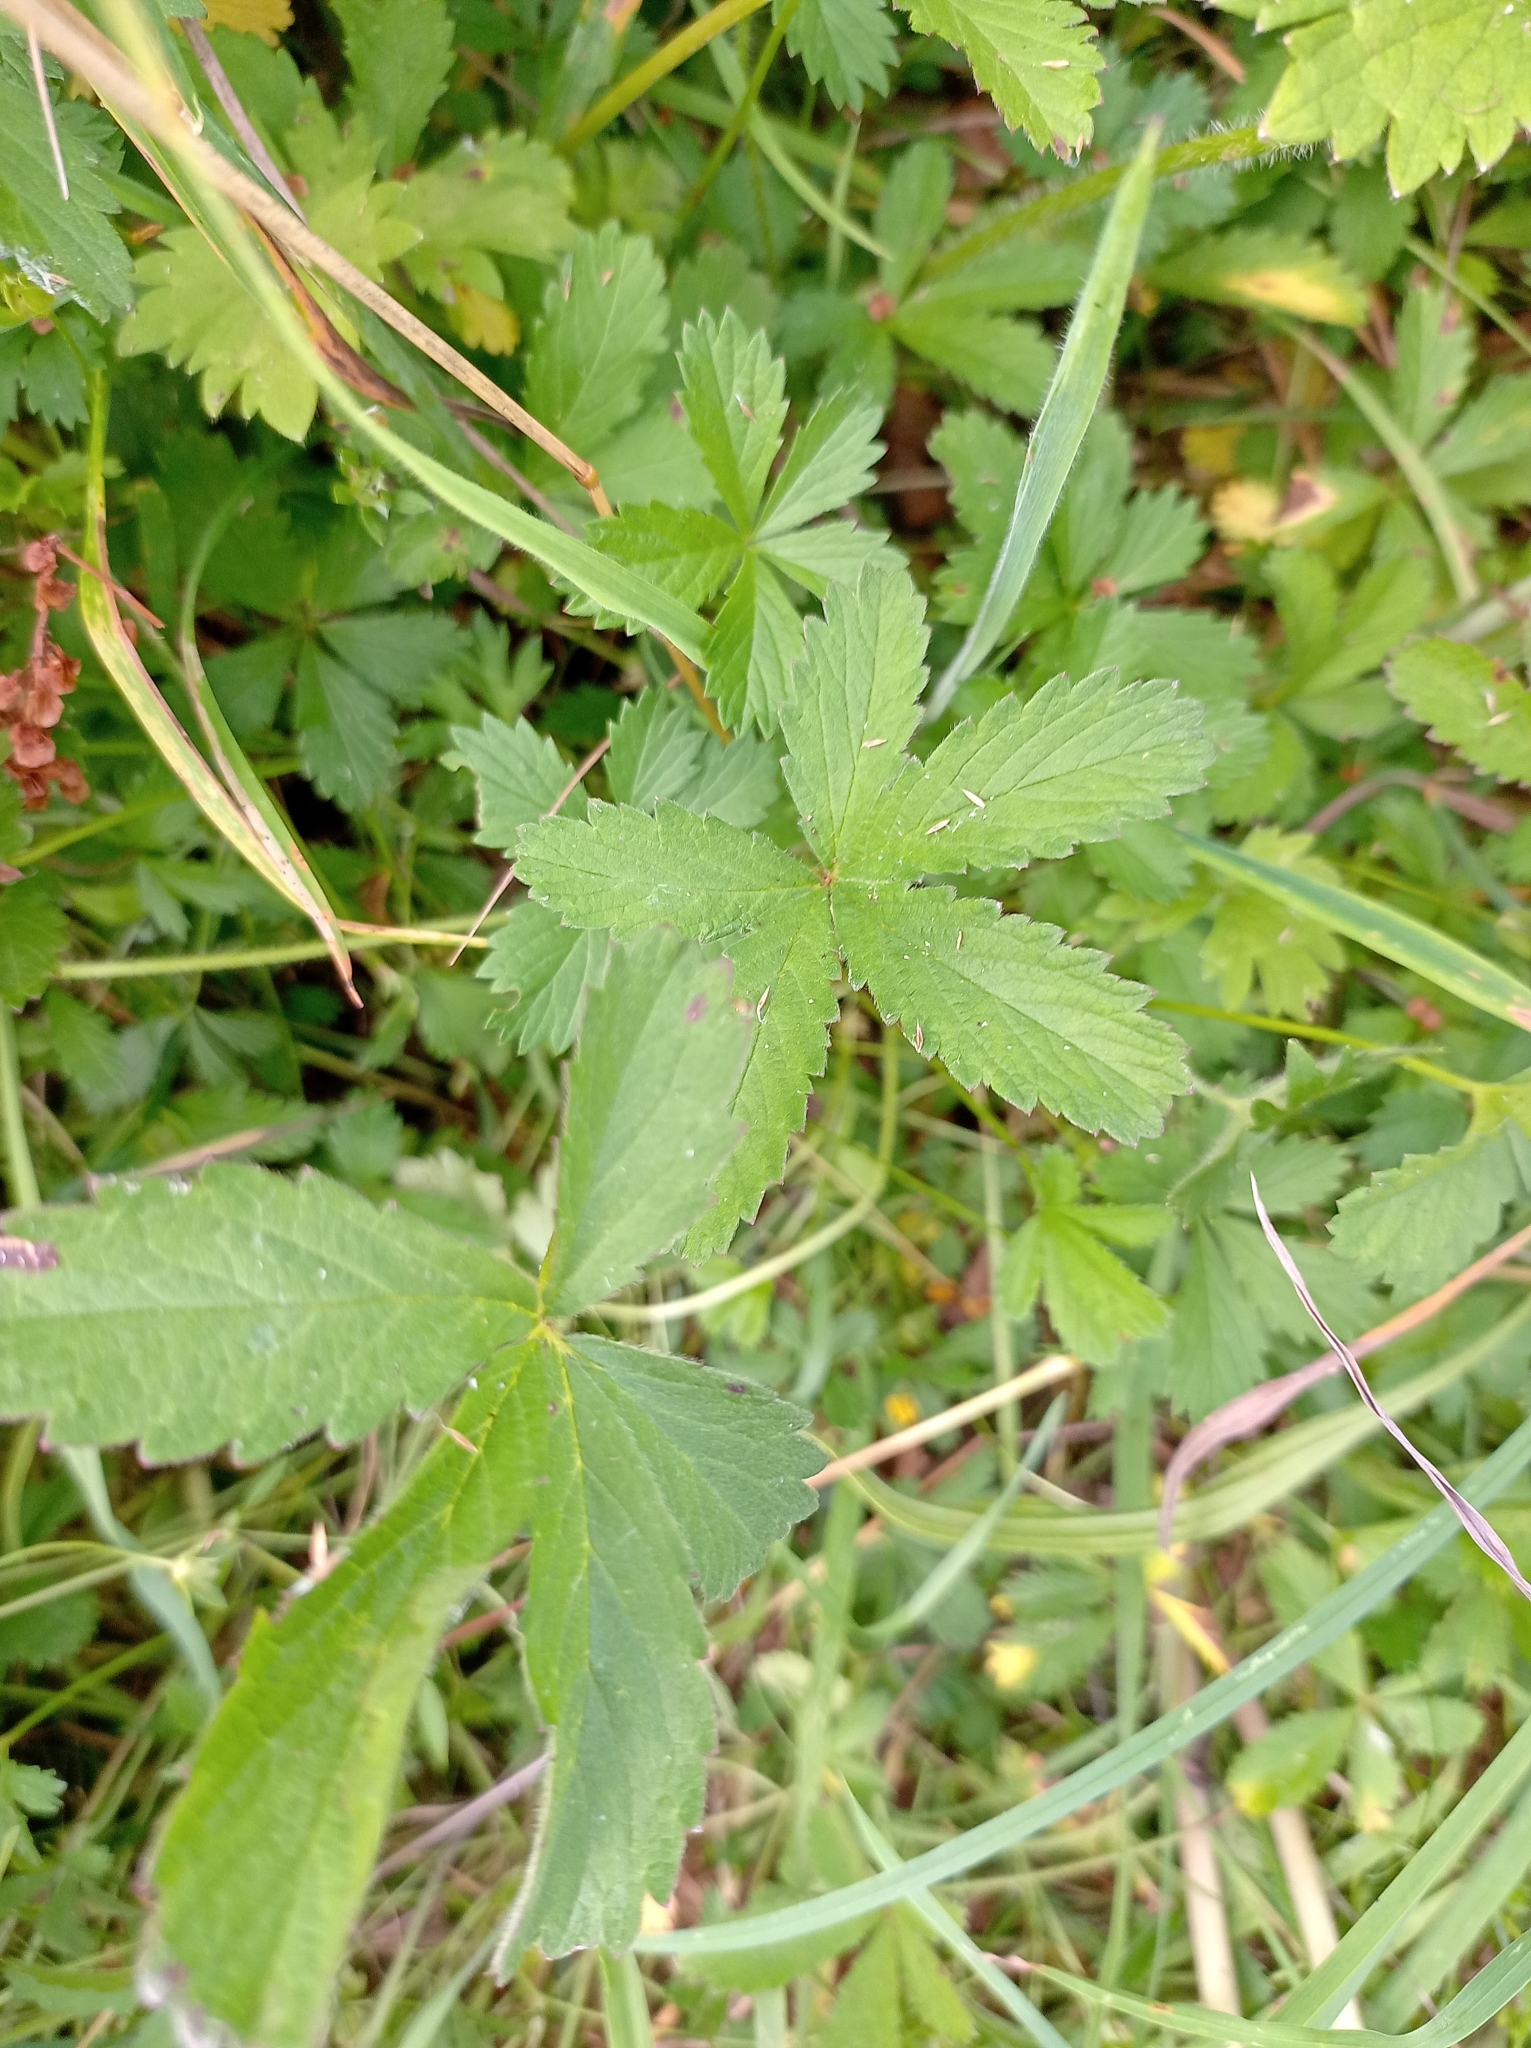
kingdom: Plantae
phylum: Tracheophyta
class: Magnoliopsida
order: Rosales
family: Rosaceae
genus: Potentilla
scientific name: Potentilla reptans
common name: Creeping cinquefoil
